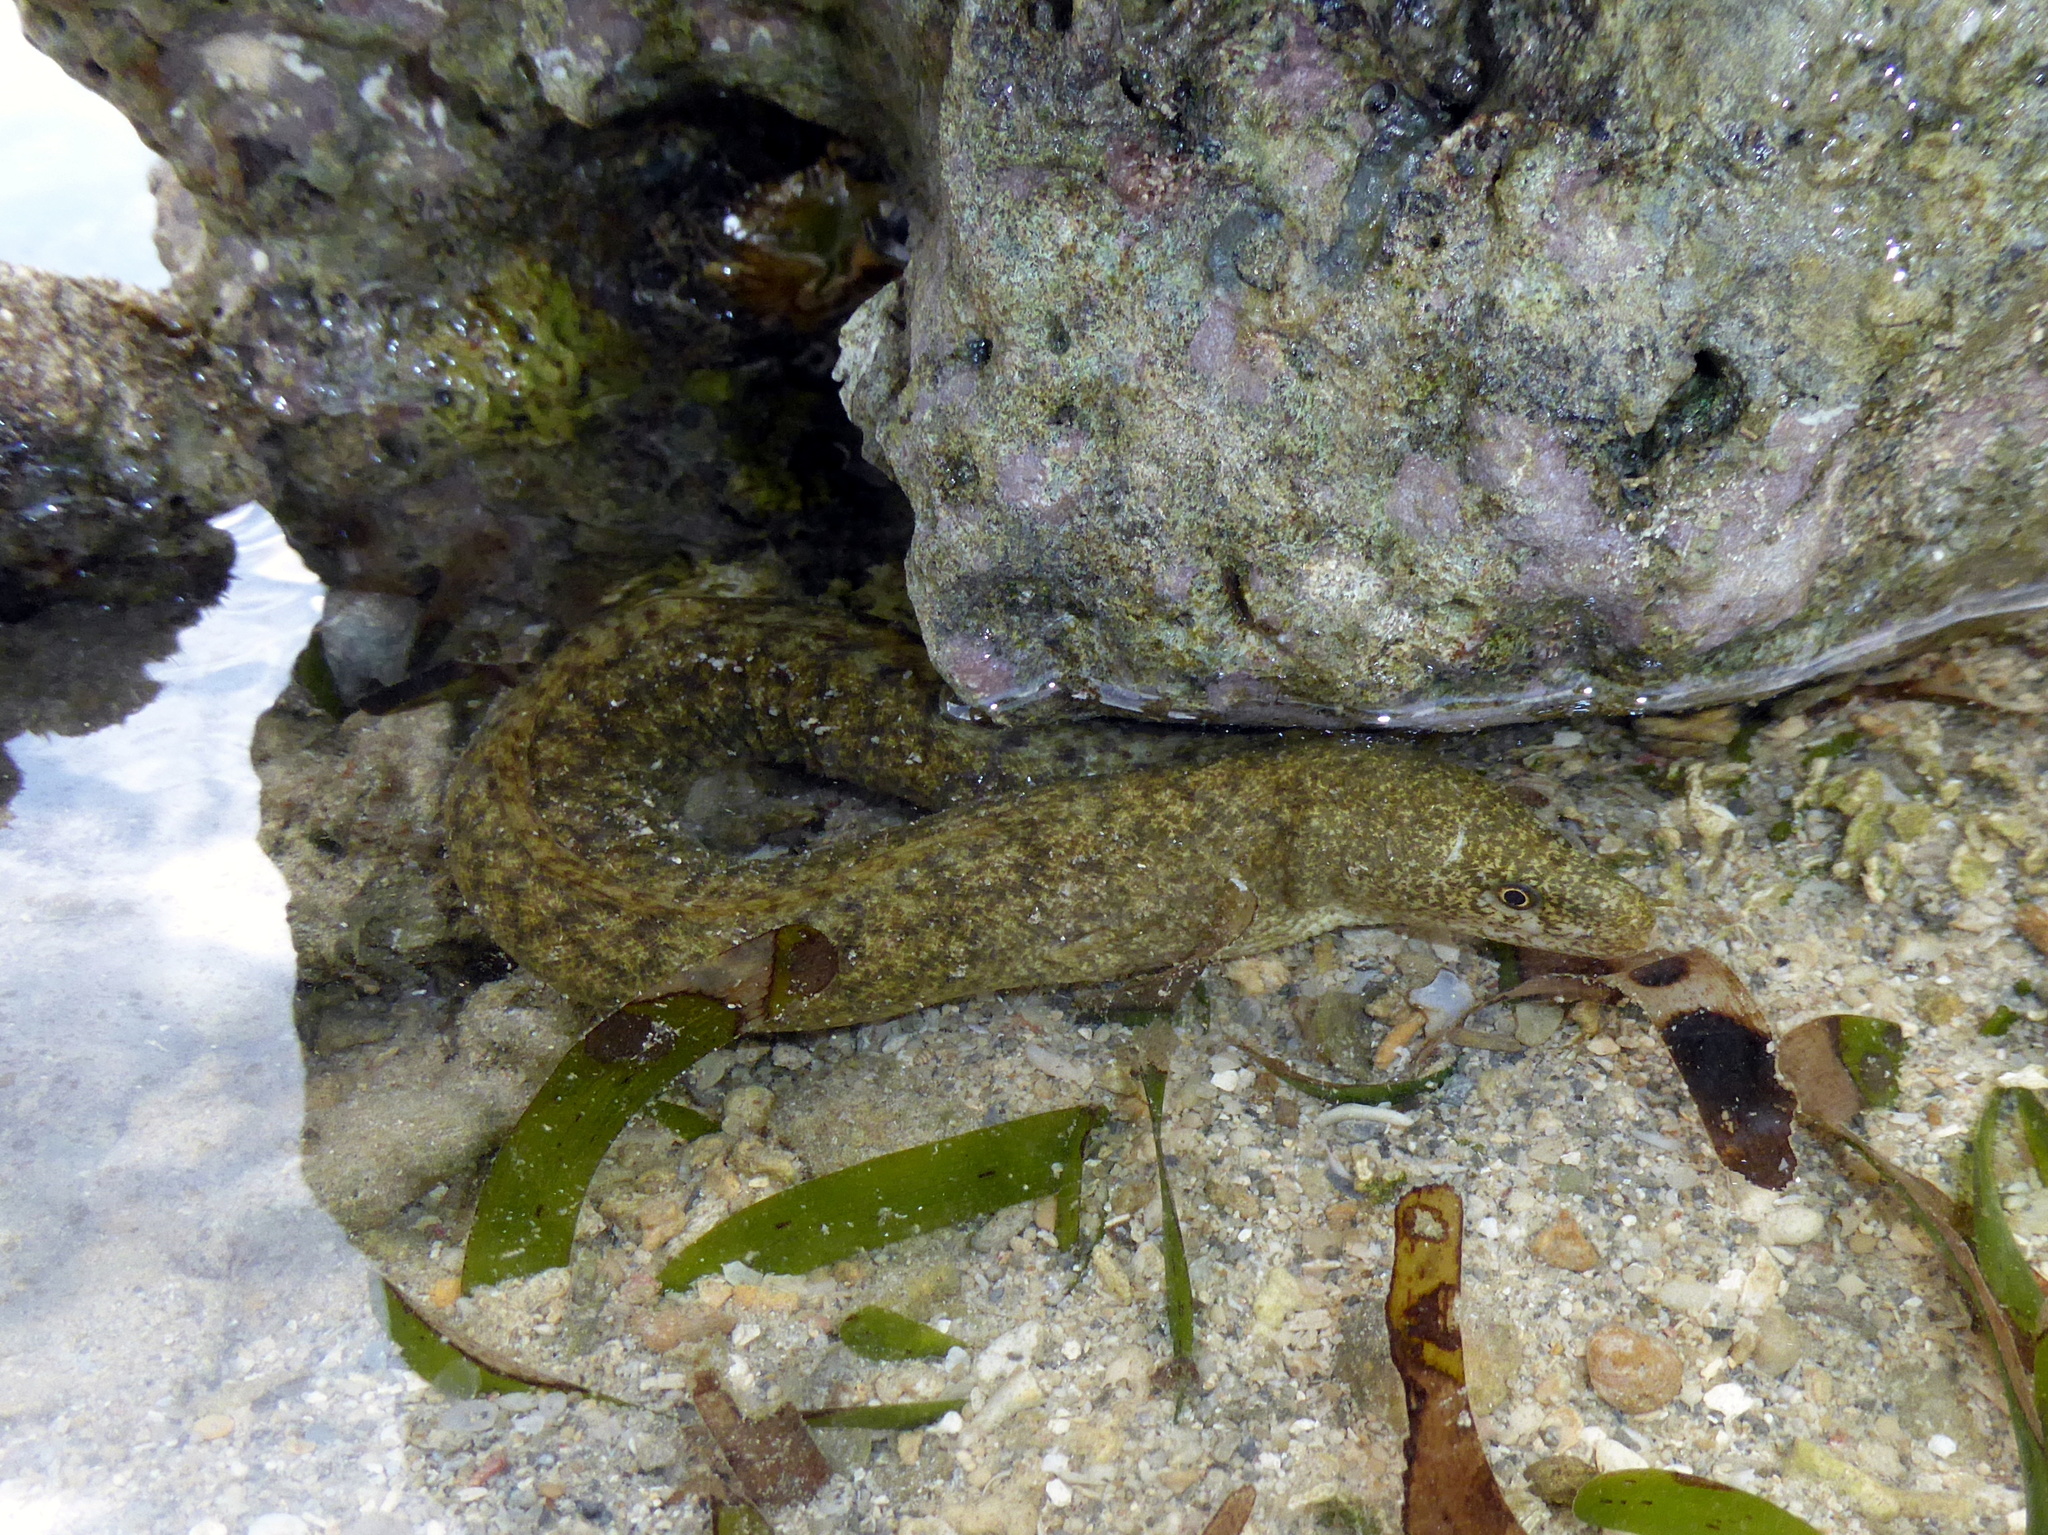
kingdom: Animalia
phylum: Chordata
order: Anguilliformes
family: Muraenidae
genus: Gymnothorax
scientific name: Gymnothorax richardsonii
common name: Richardson's moray
